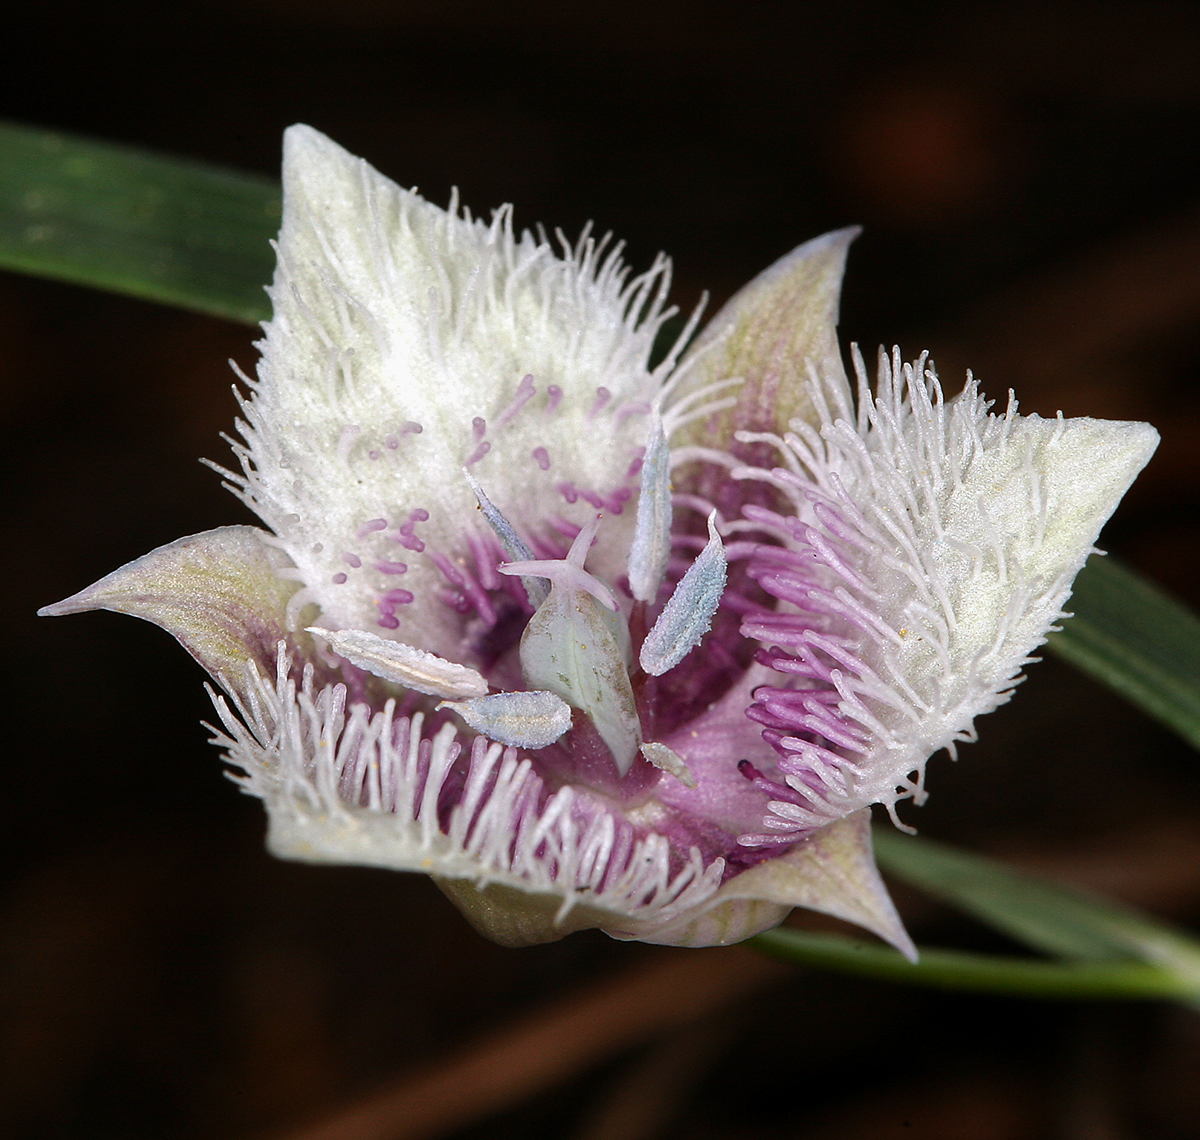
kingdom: Plantae
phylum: Tracheophyta
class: Liliopsida
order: Liliales
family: Liliaceae
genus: Calochortus
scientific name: Calochortus tolmiei
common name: Pussy-ears
